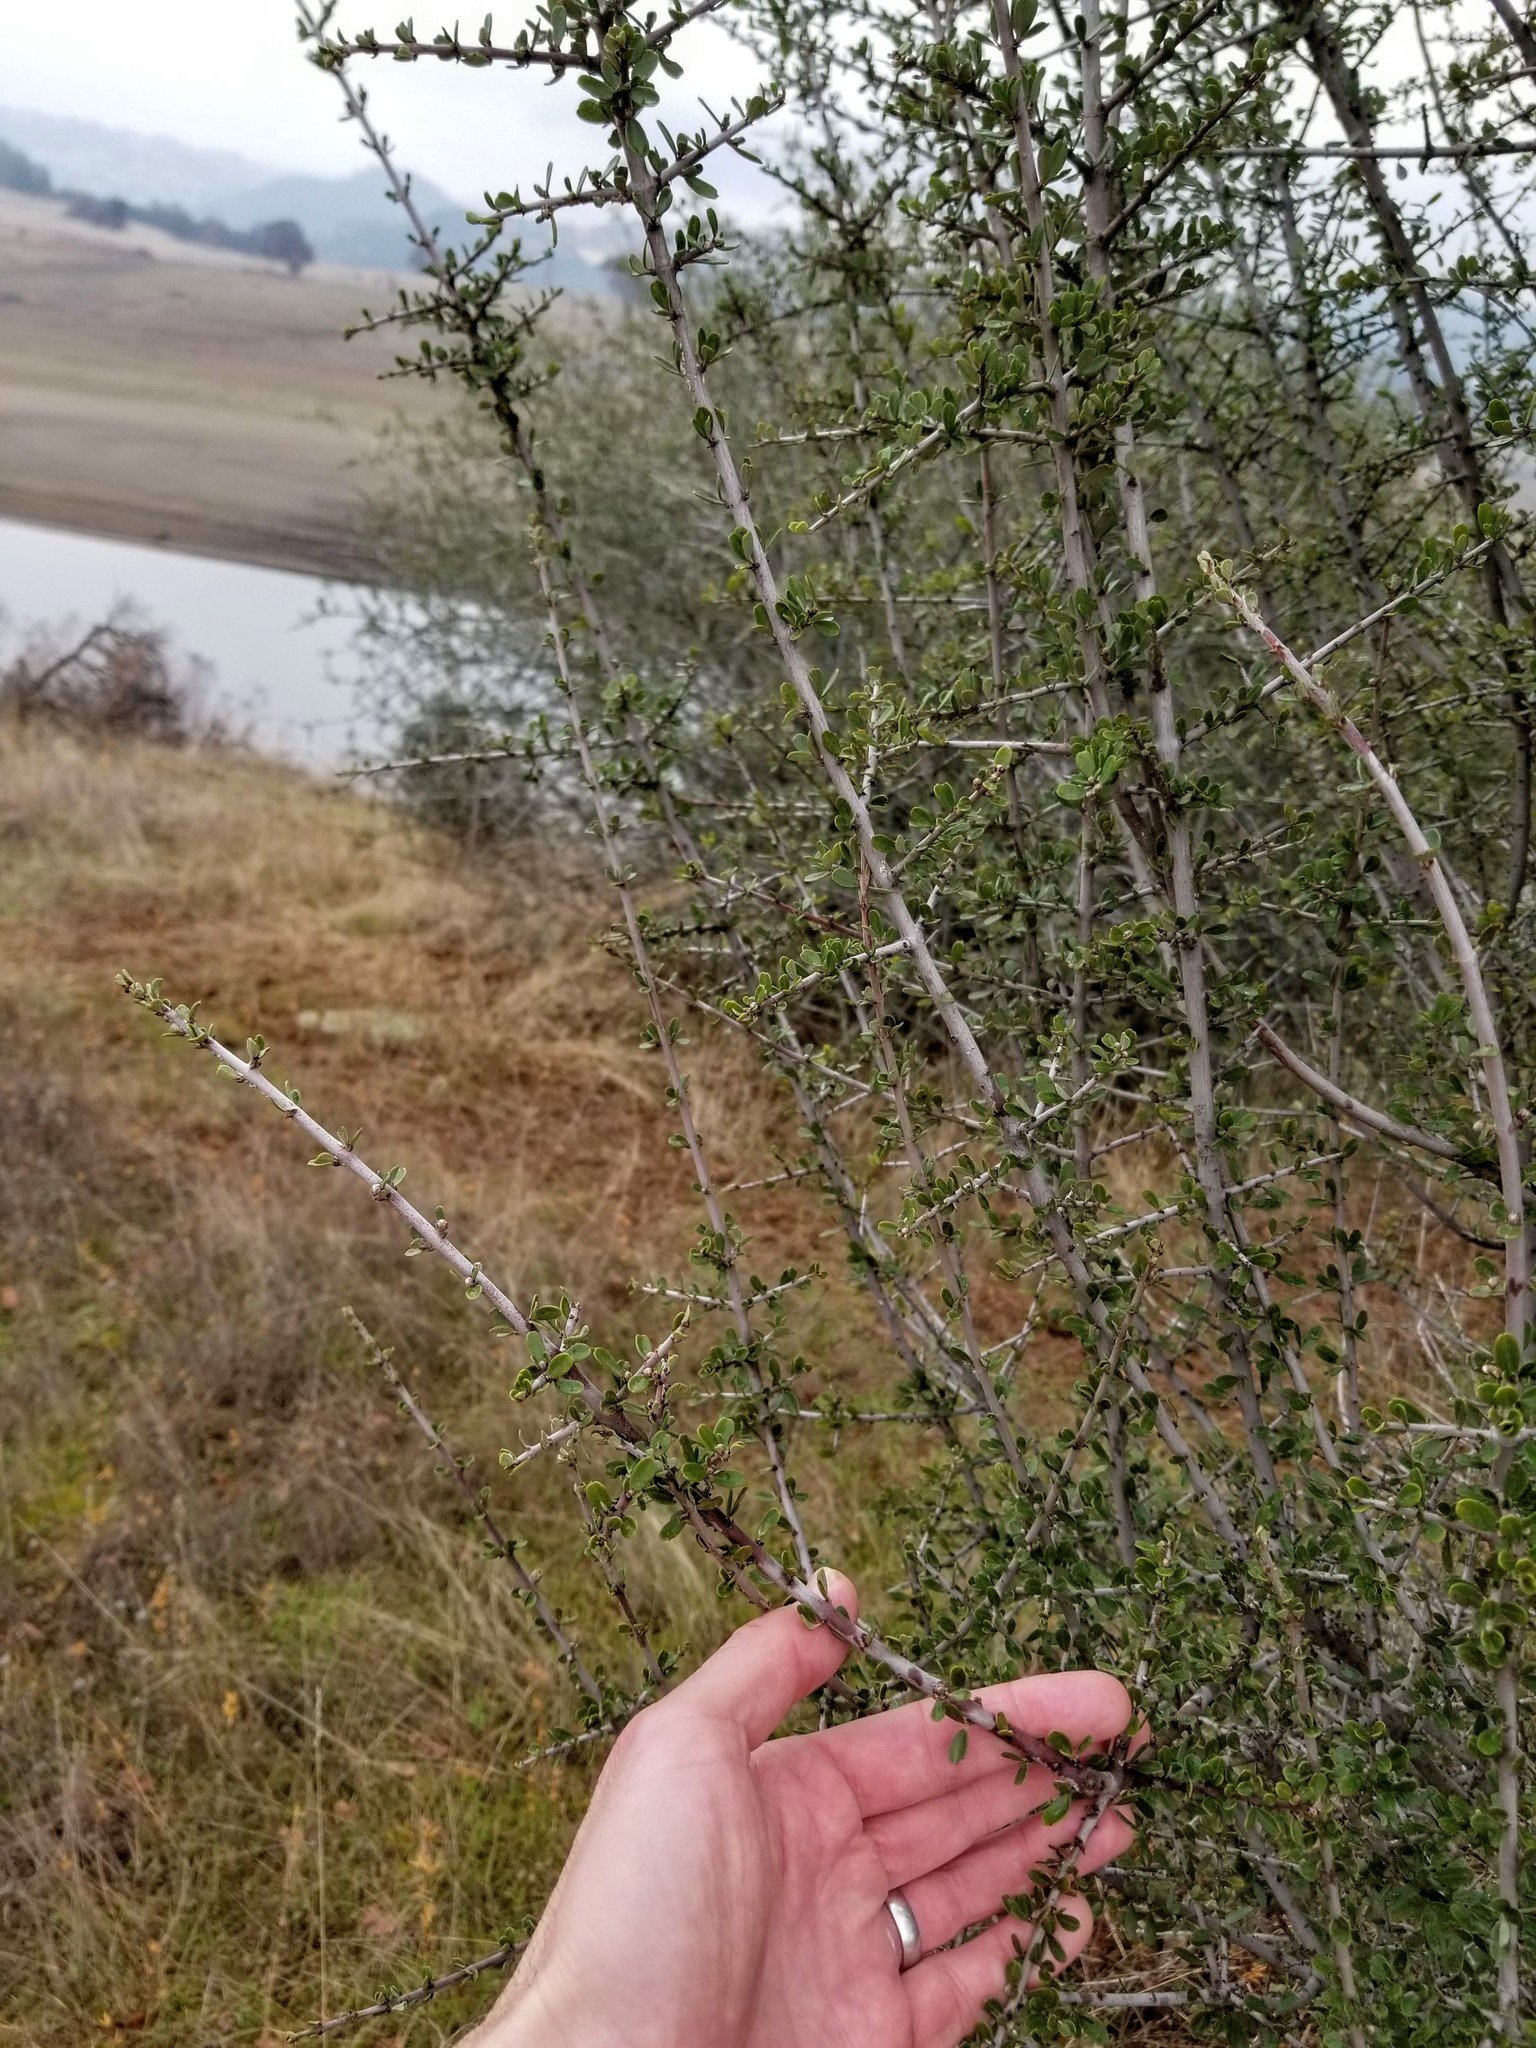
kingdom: Plantae
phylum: Tracheophyta
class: Magnoliopsida
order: Rosales
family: Rhamnaceae
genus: Ceanothus
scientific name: Ceanothus cuneatus
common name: Cuneate ceanothus
